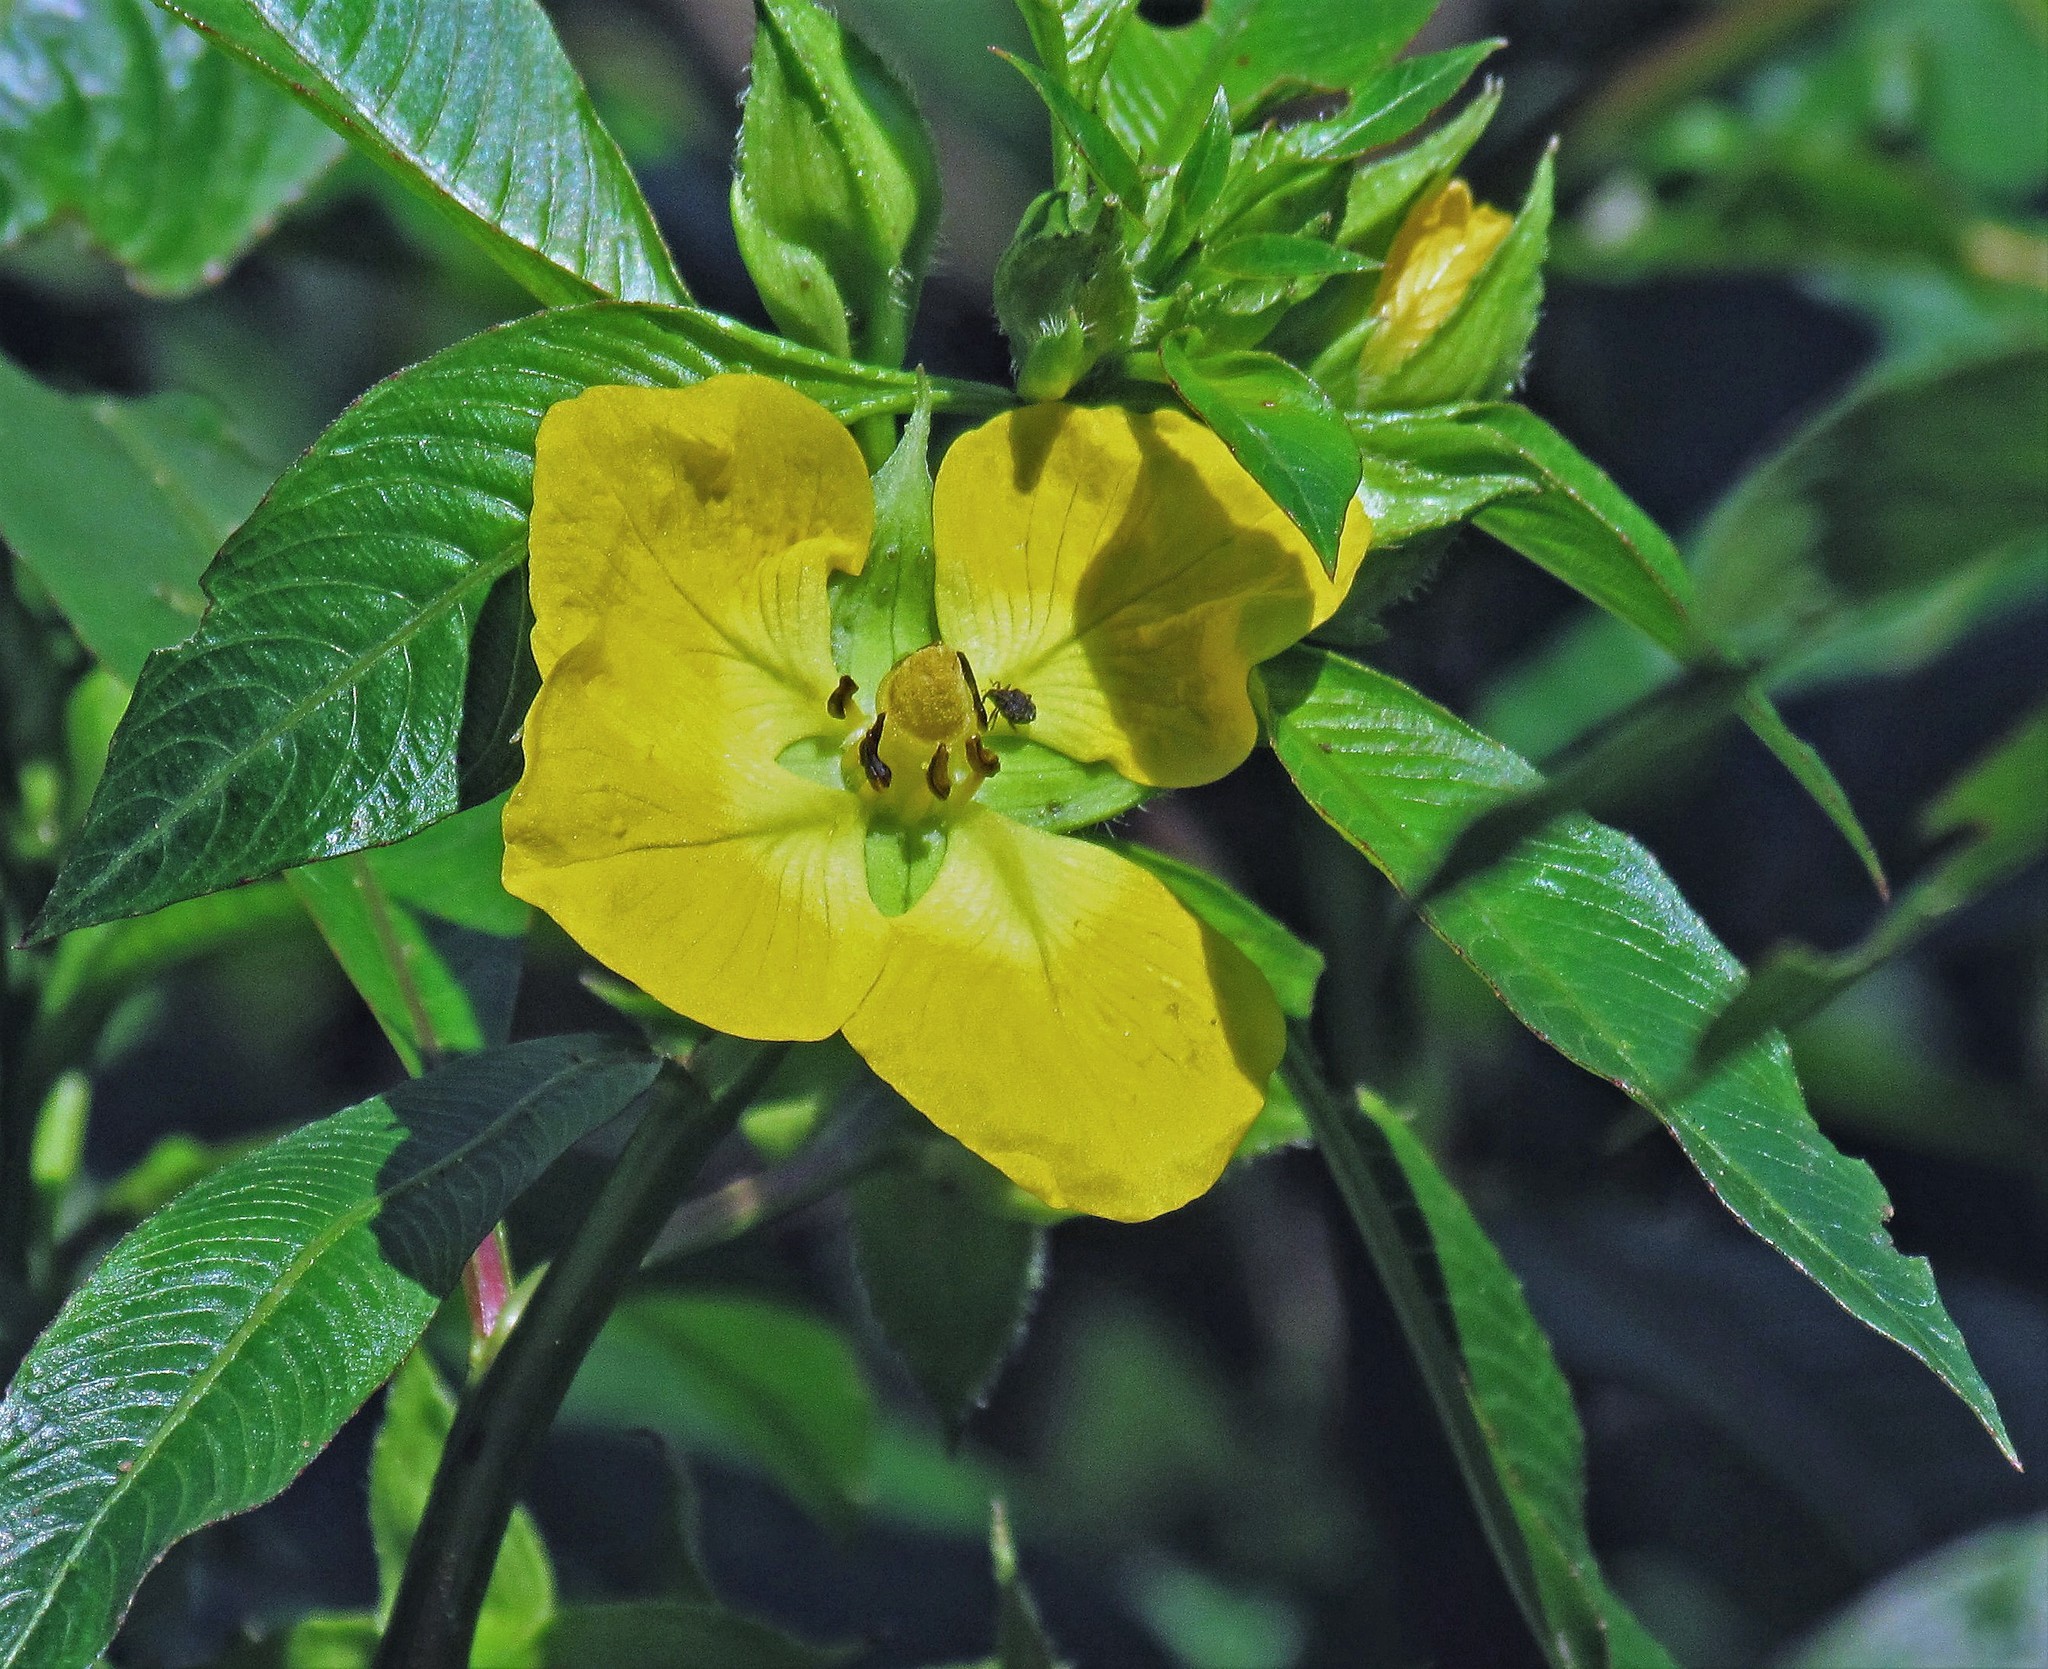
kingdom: Plantae
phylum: Tracheophyta
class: Magnoliopsida
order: Myrtales
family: Onagraceae
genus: Ludwigia
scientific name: Ludwigia elegans
